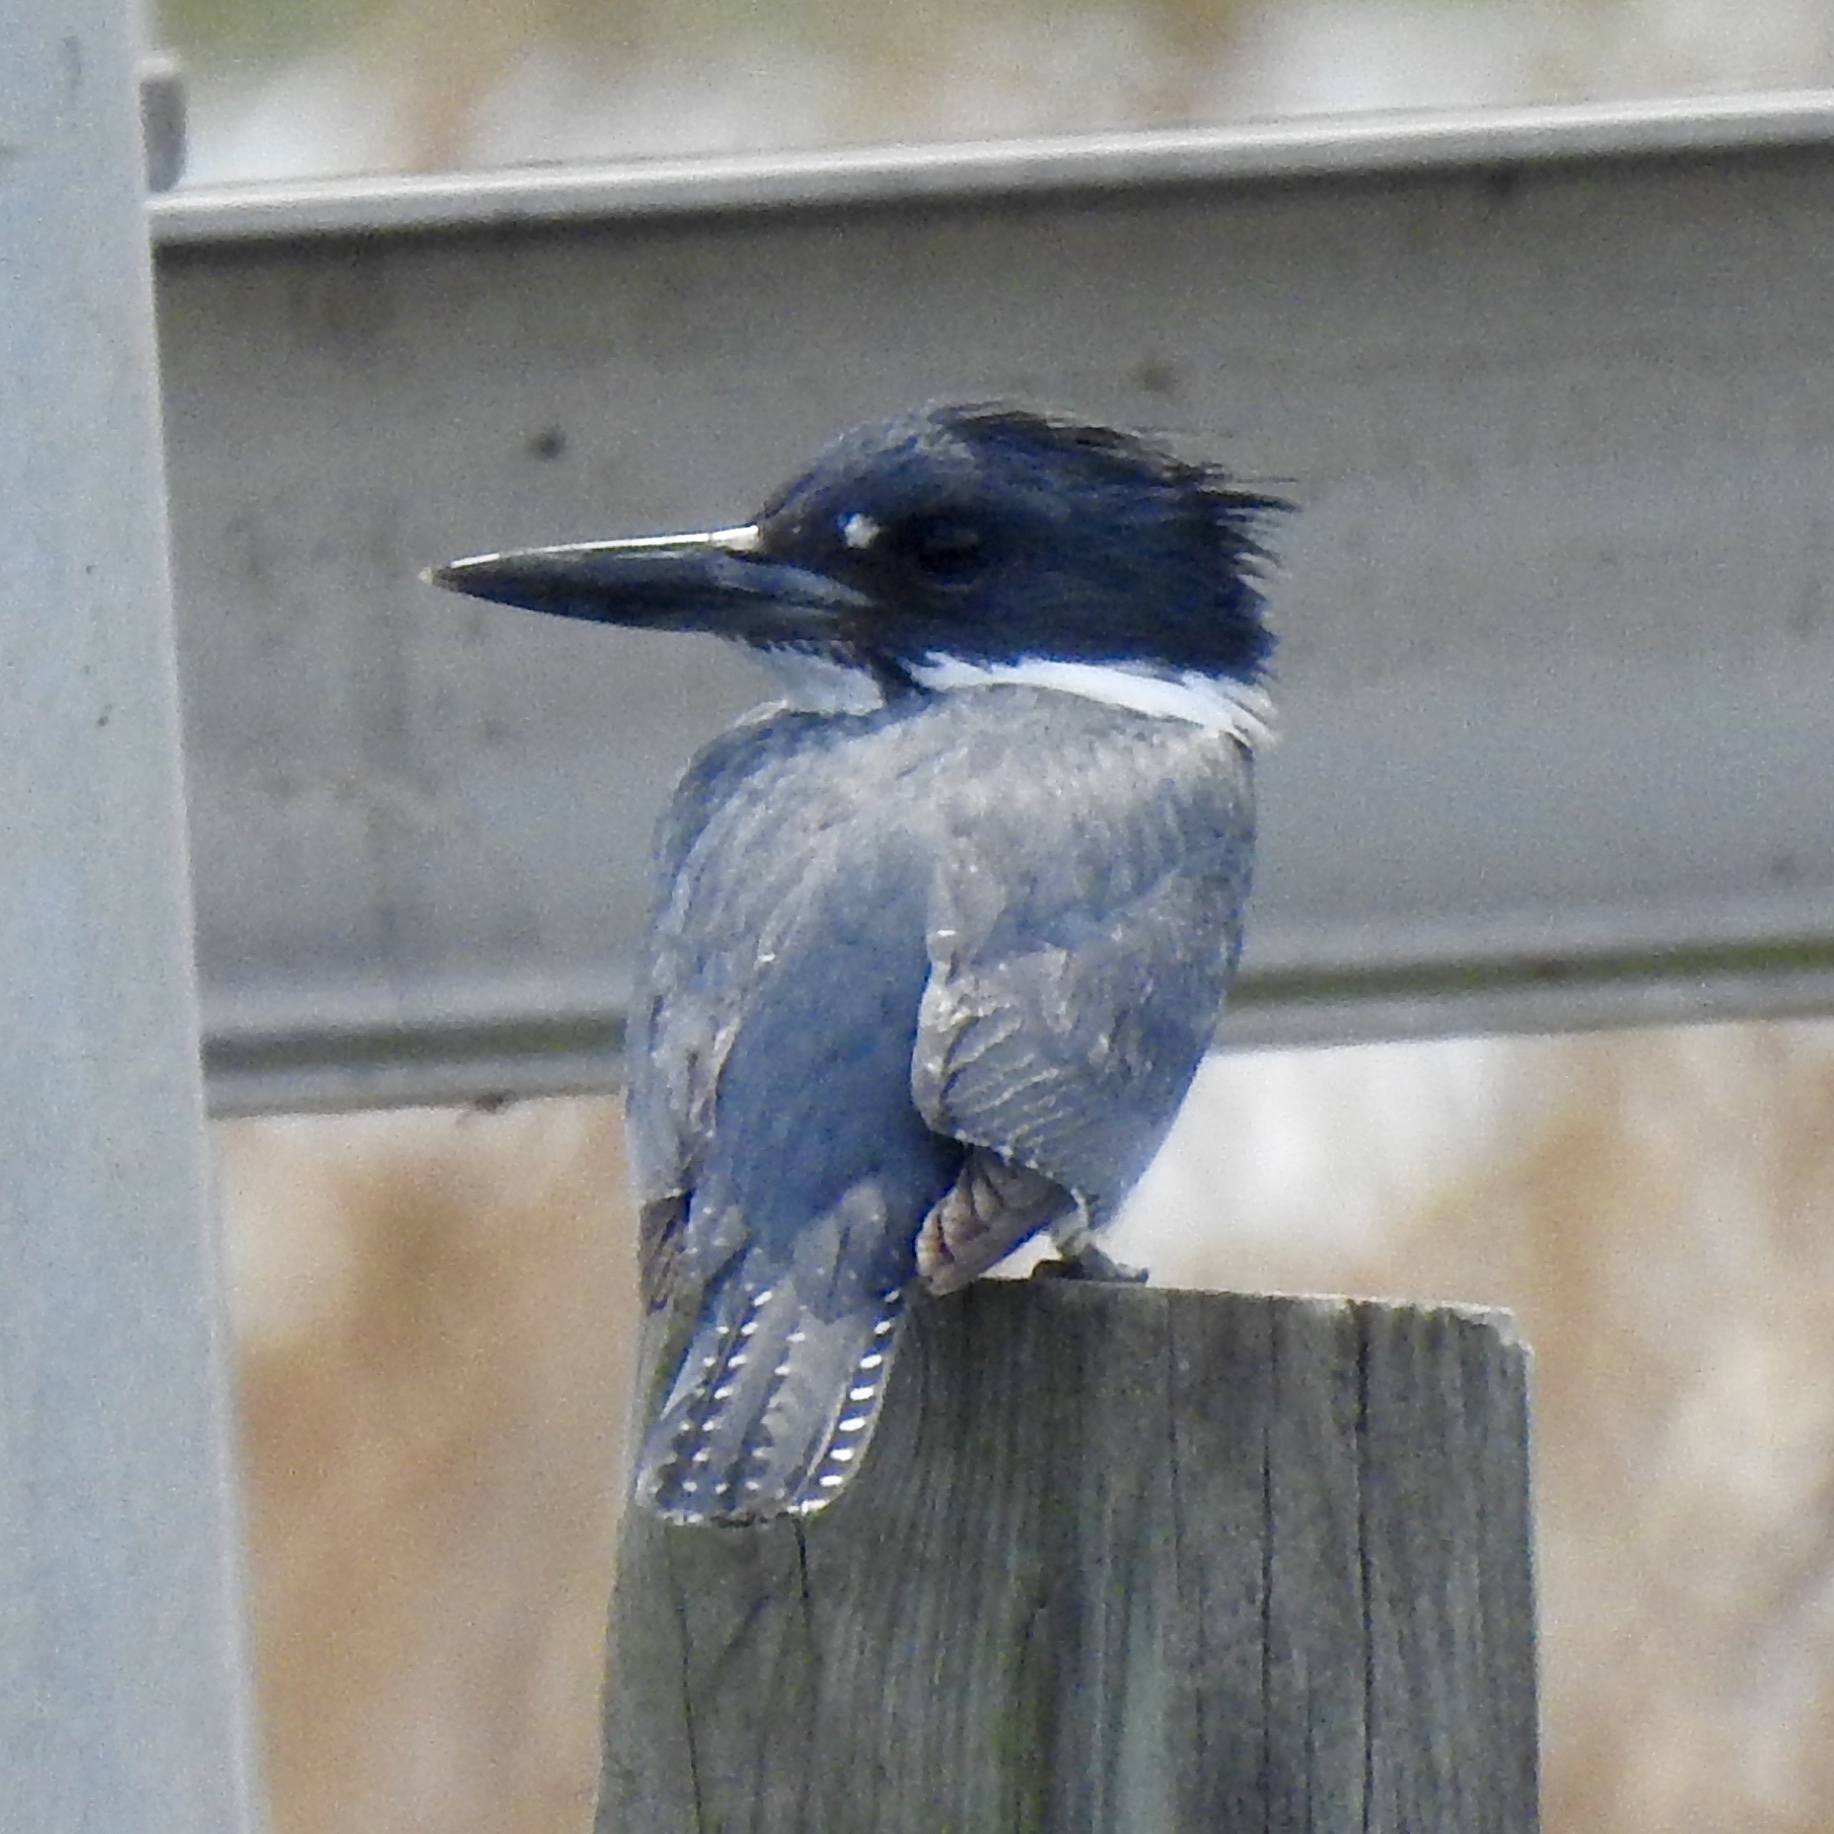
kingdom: Animalia
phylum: Chordata
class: Aves
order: Coraciiformes
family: Alcedinidae
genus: Megaceryle
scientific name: Megaceryle alcyon
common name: Belted kingfisher
